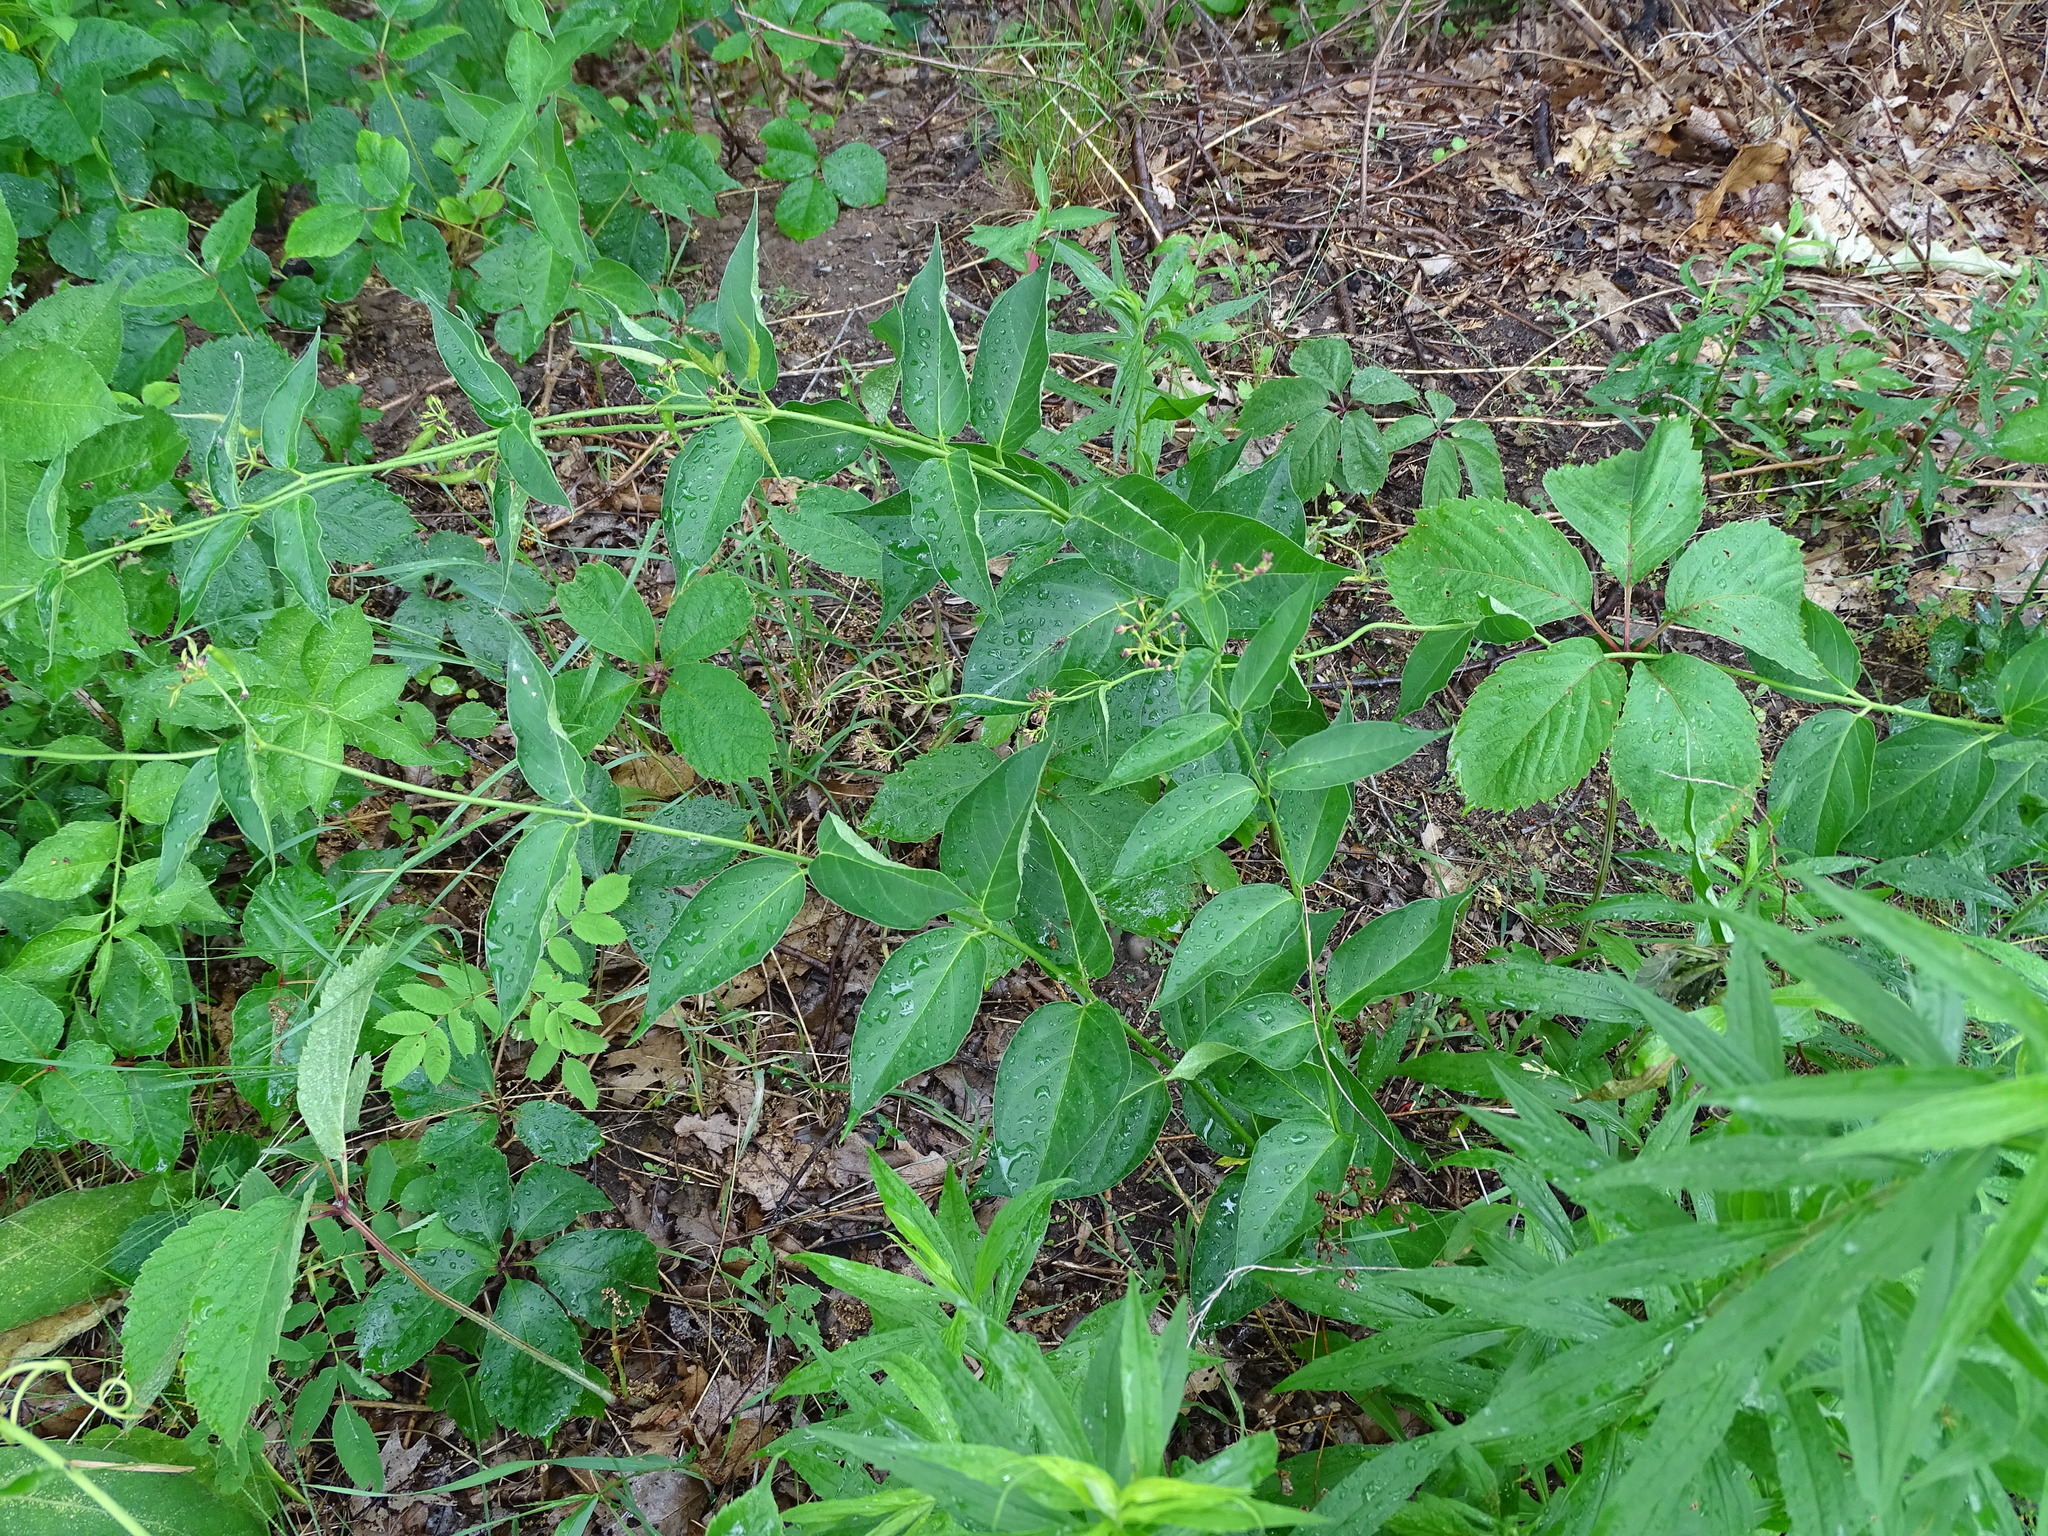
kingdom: Plantae
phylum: Tracheophyta
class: Magnoliopsida
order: Gentianales
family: Apocynaceae
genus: Vincetoxicum
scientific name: Vincetoxicum rossicum
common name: Dog-strangling vine
